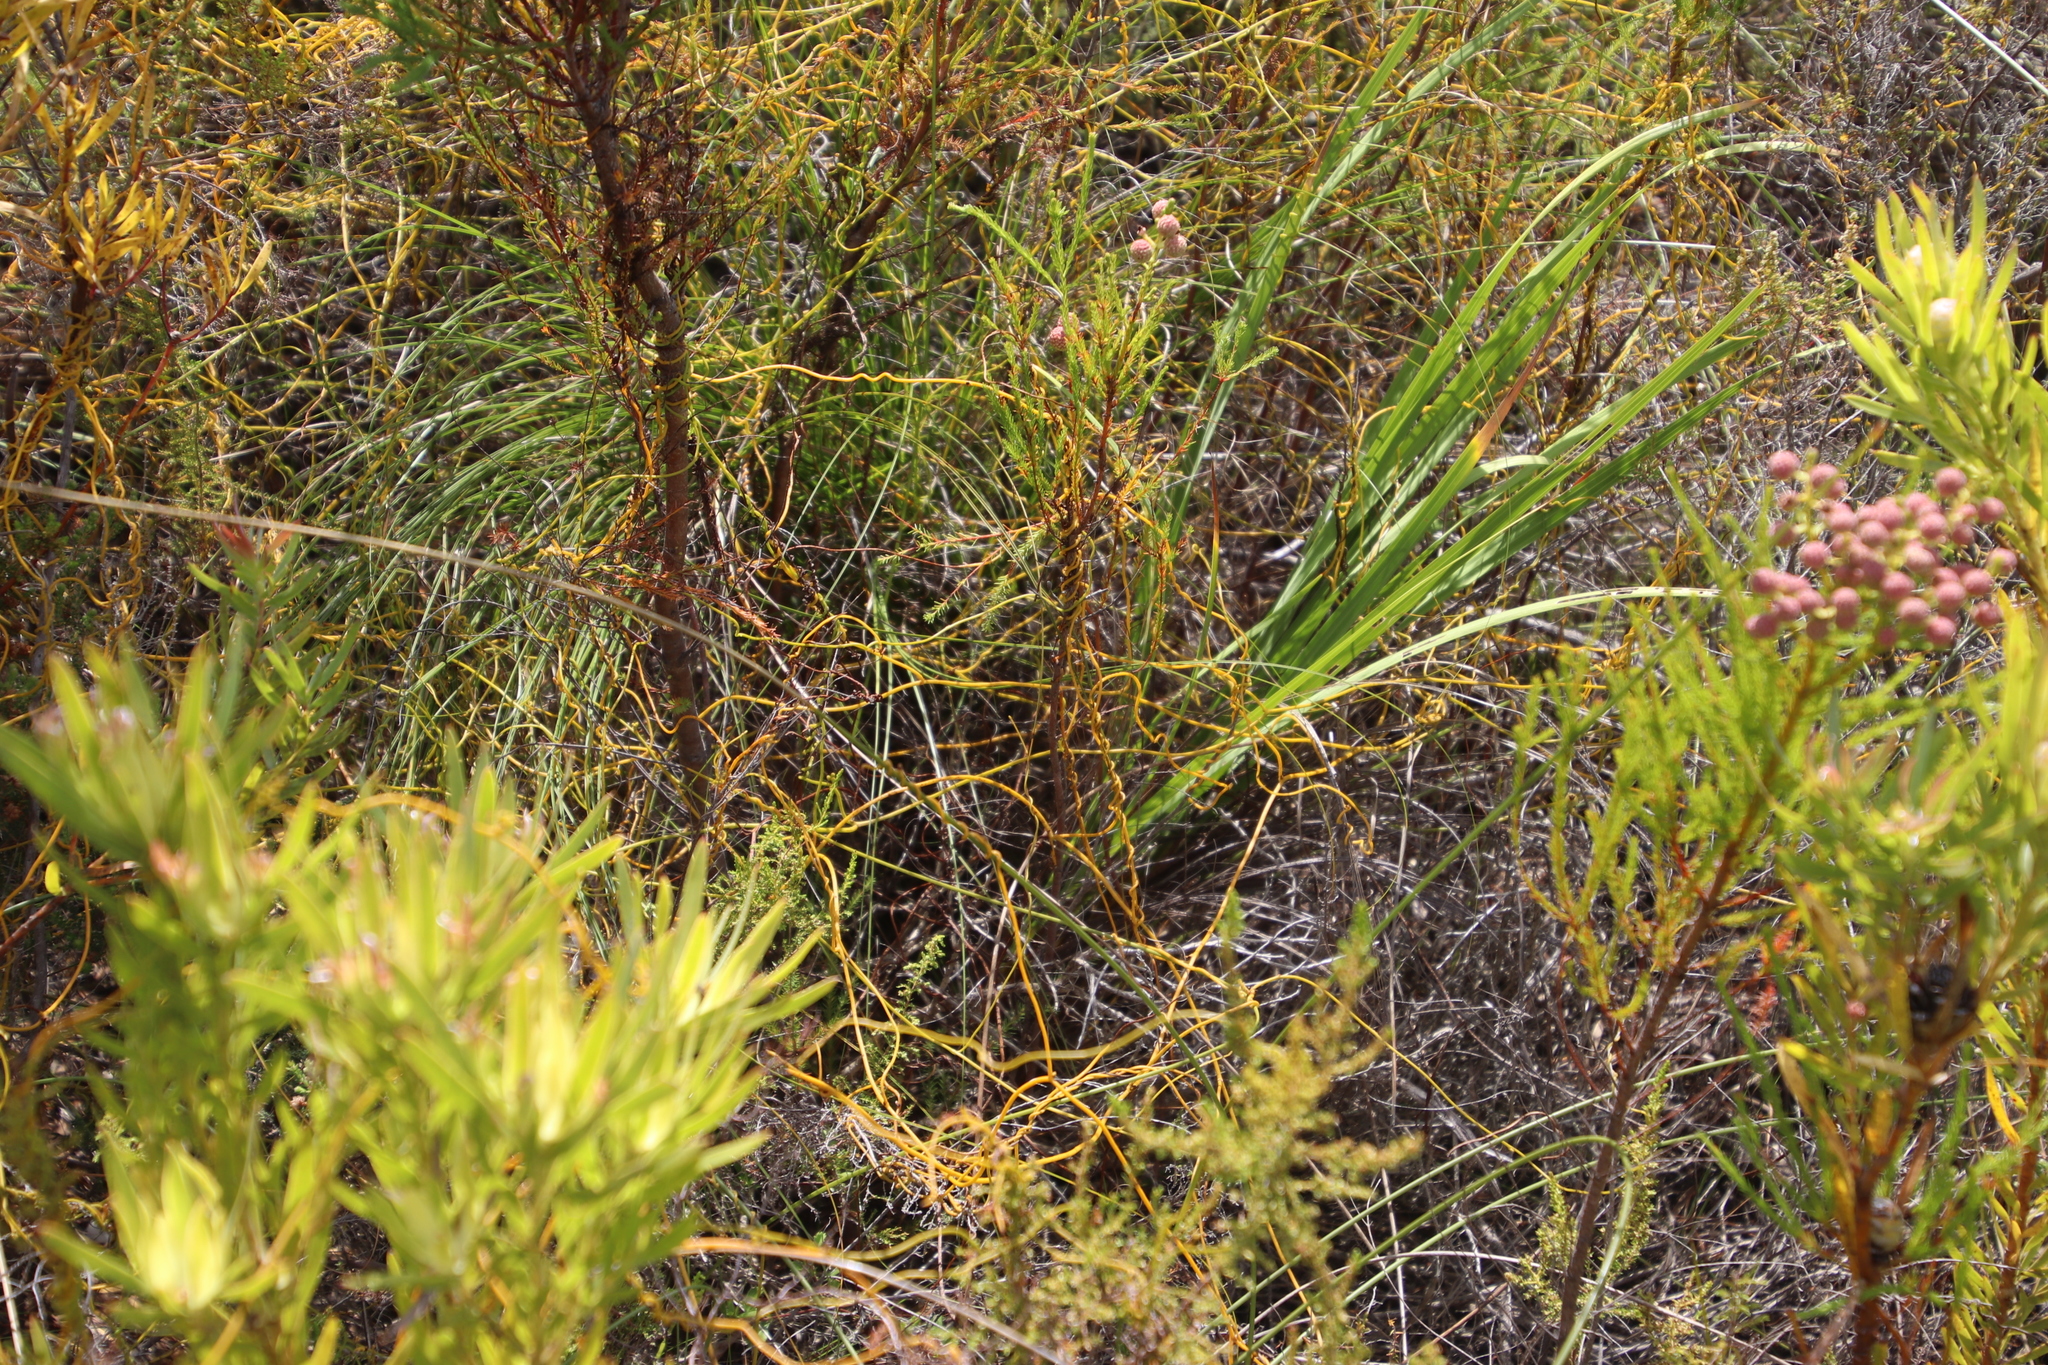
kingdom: Plantae
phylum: Tracheophyta
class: Magnoliopsida
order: Laurales
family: Lauraceae
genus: Cassytha
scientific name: Cassytha ciliolata
